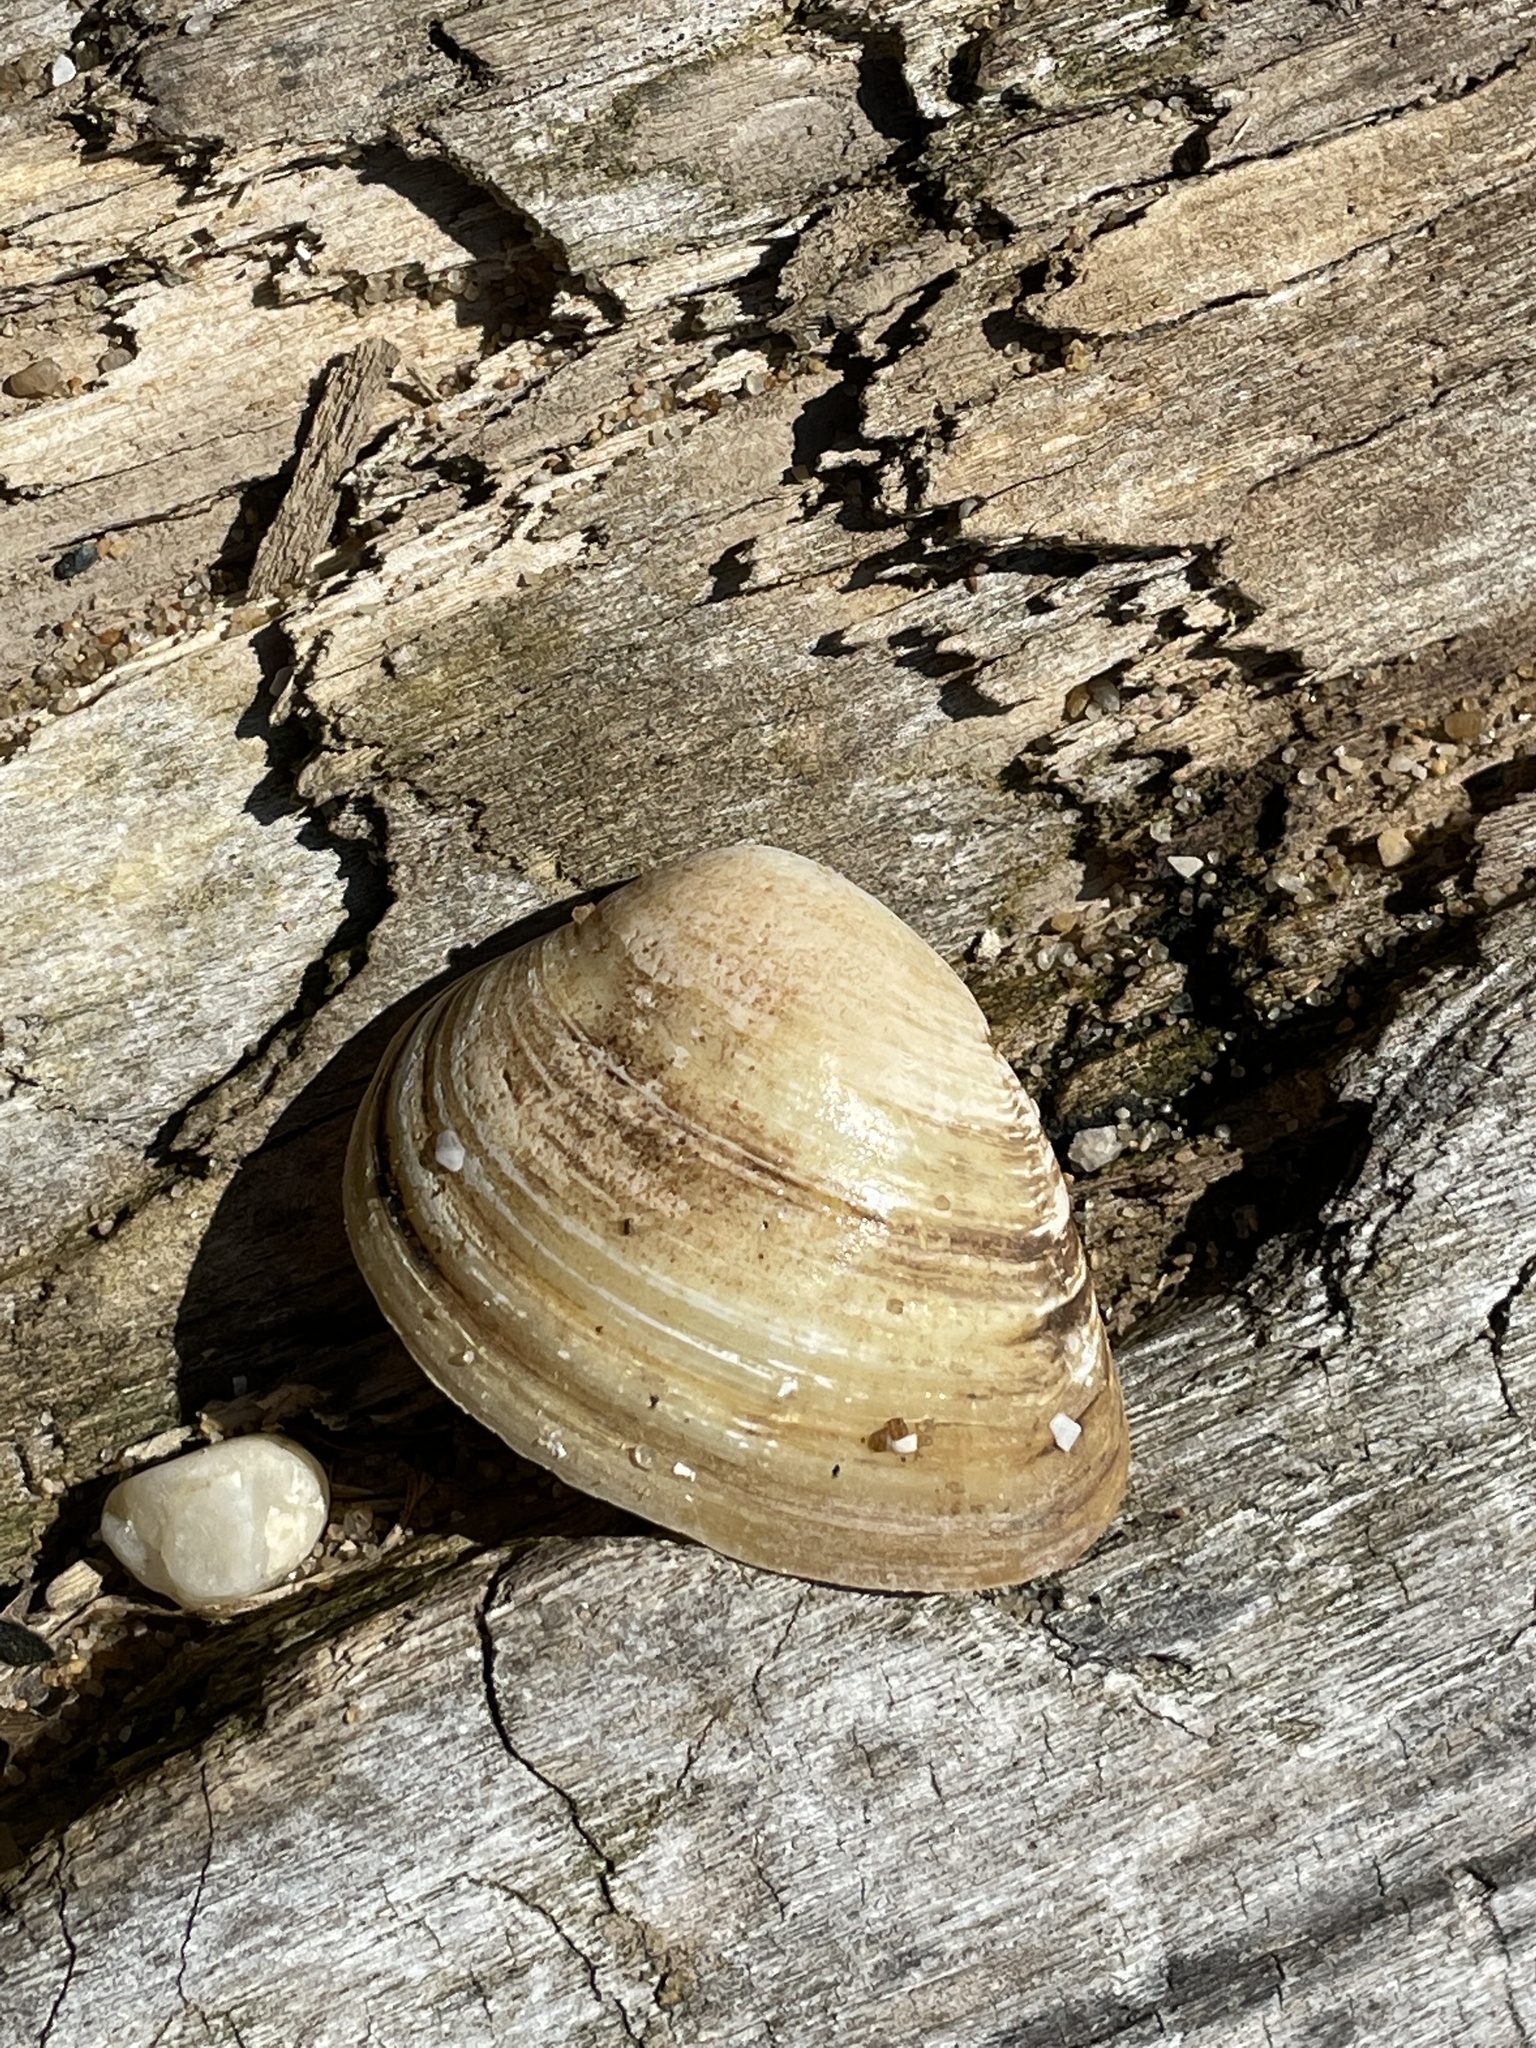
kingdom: Animalia
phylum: Mollusca
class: Bivalvia
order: Venerida
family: Mactridae
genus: Rangia
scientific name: Rangia cuneata
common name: Atlantic rangia
